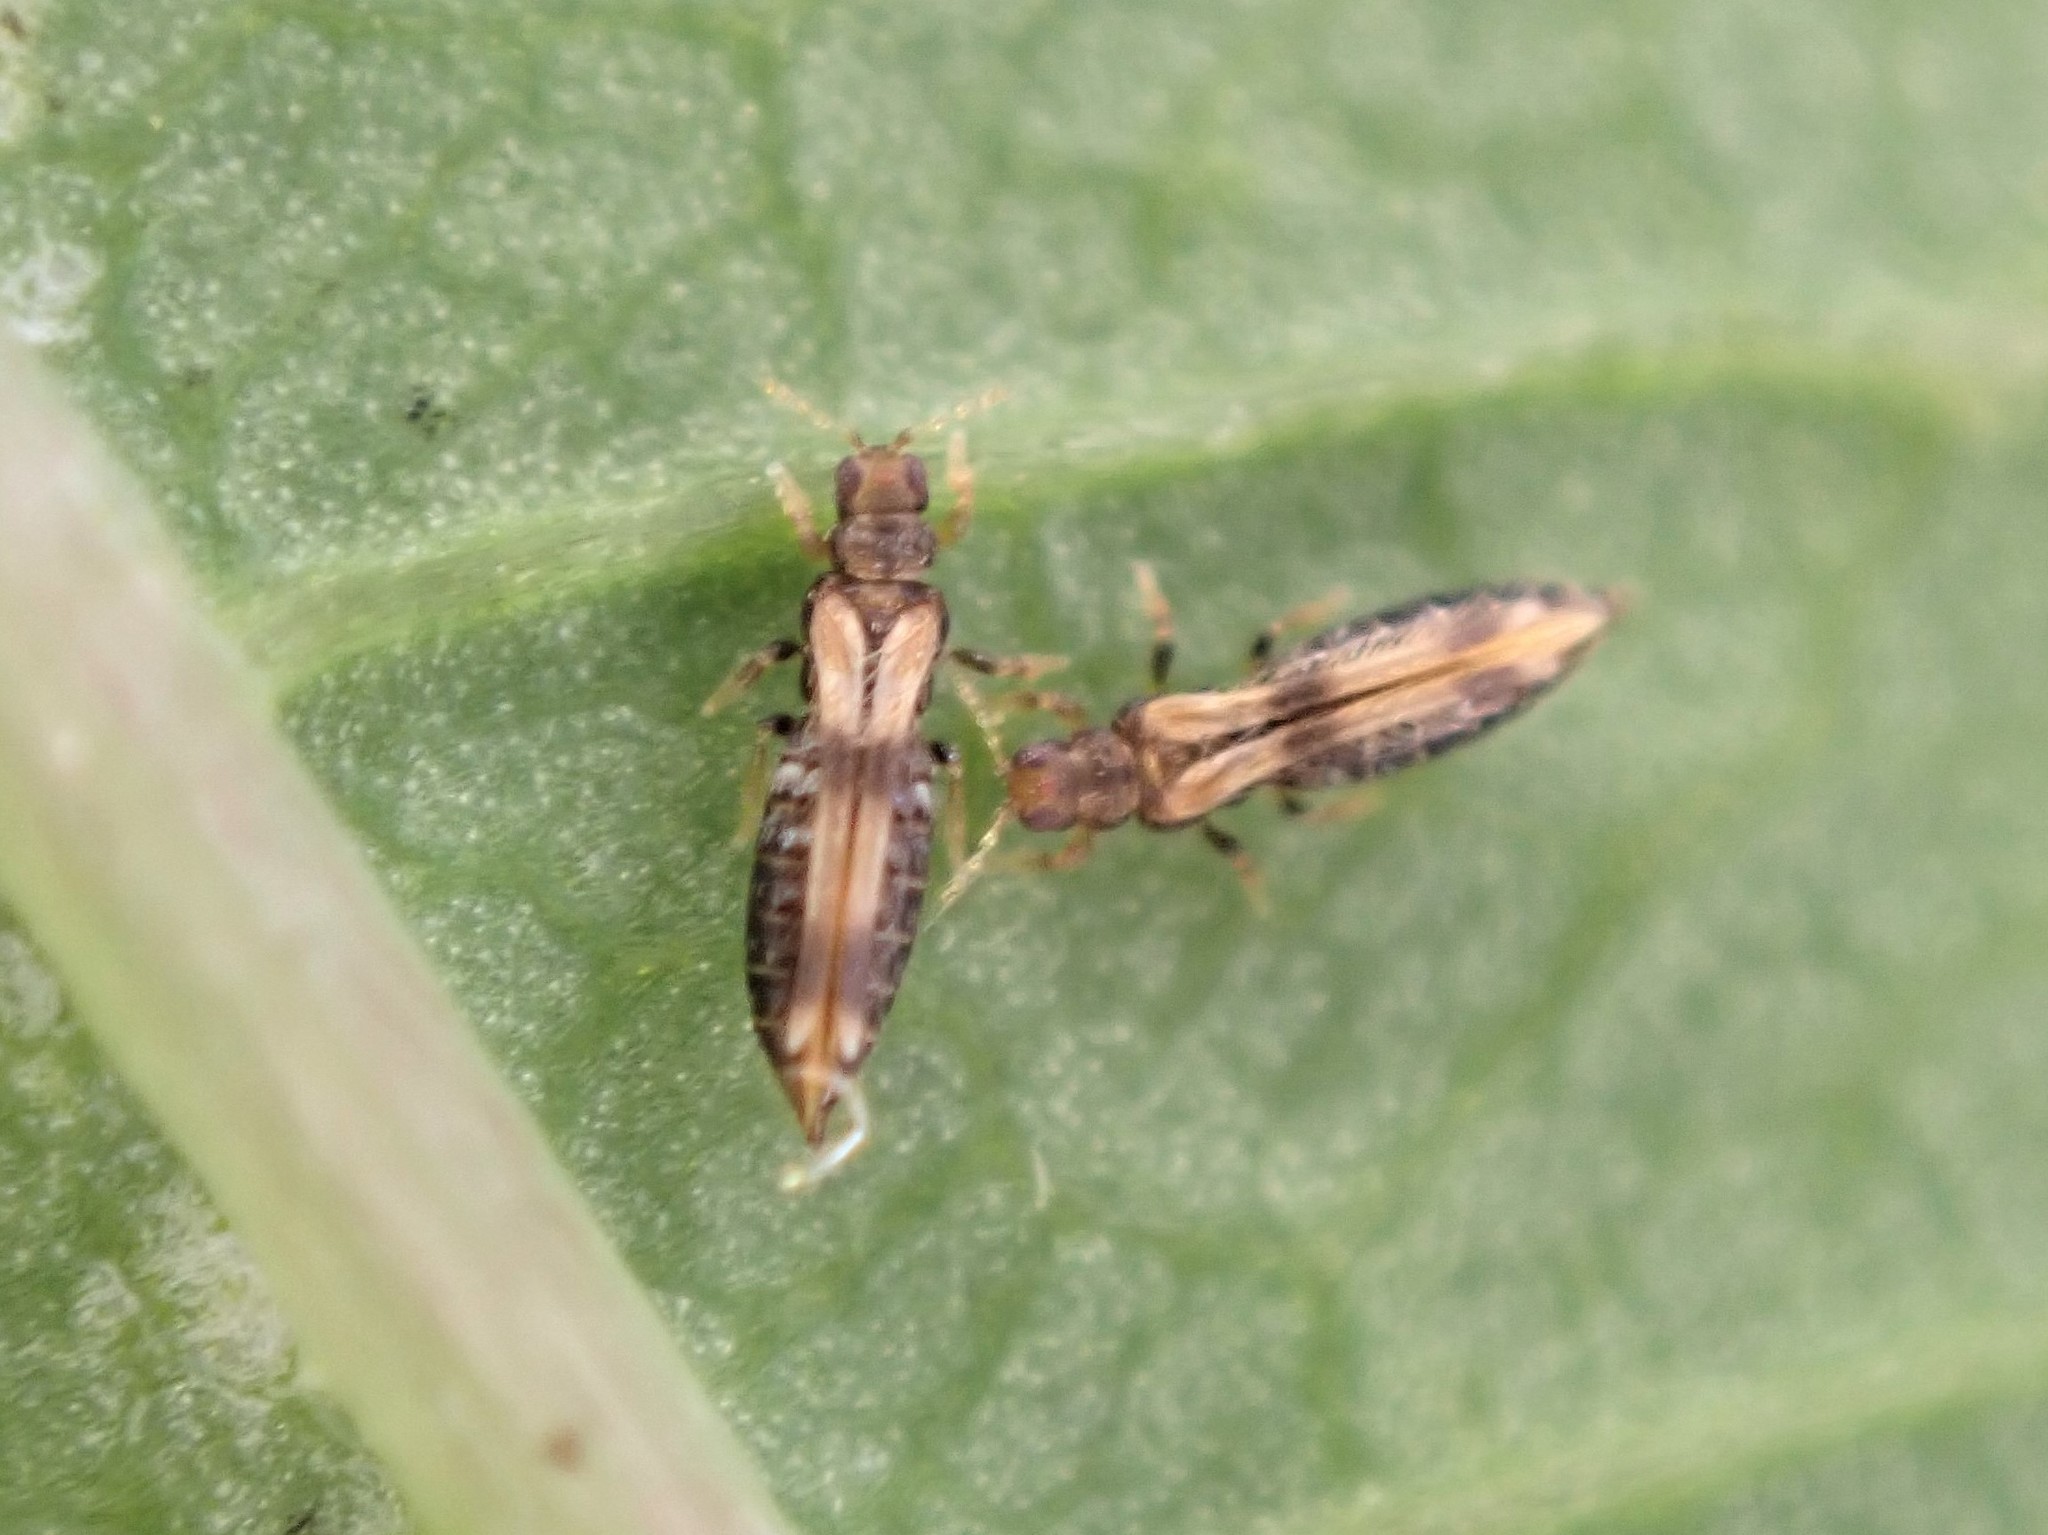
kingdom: Animalia
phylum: Arthropoda
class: Insecta
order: Thysanoptera
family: Thripidae
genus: Hercinothrips
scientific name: Hercinothrips bicinctus
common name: Thrip
